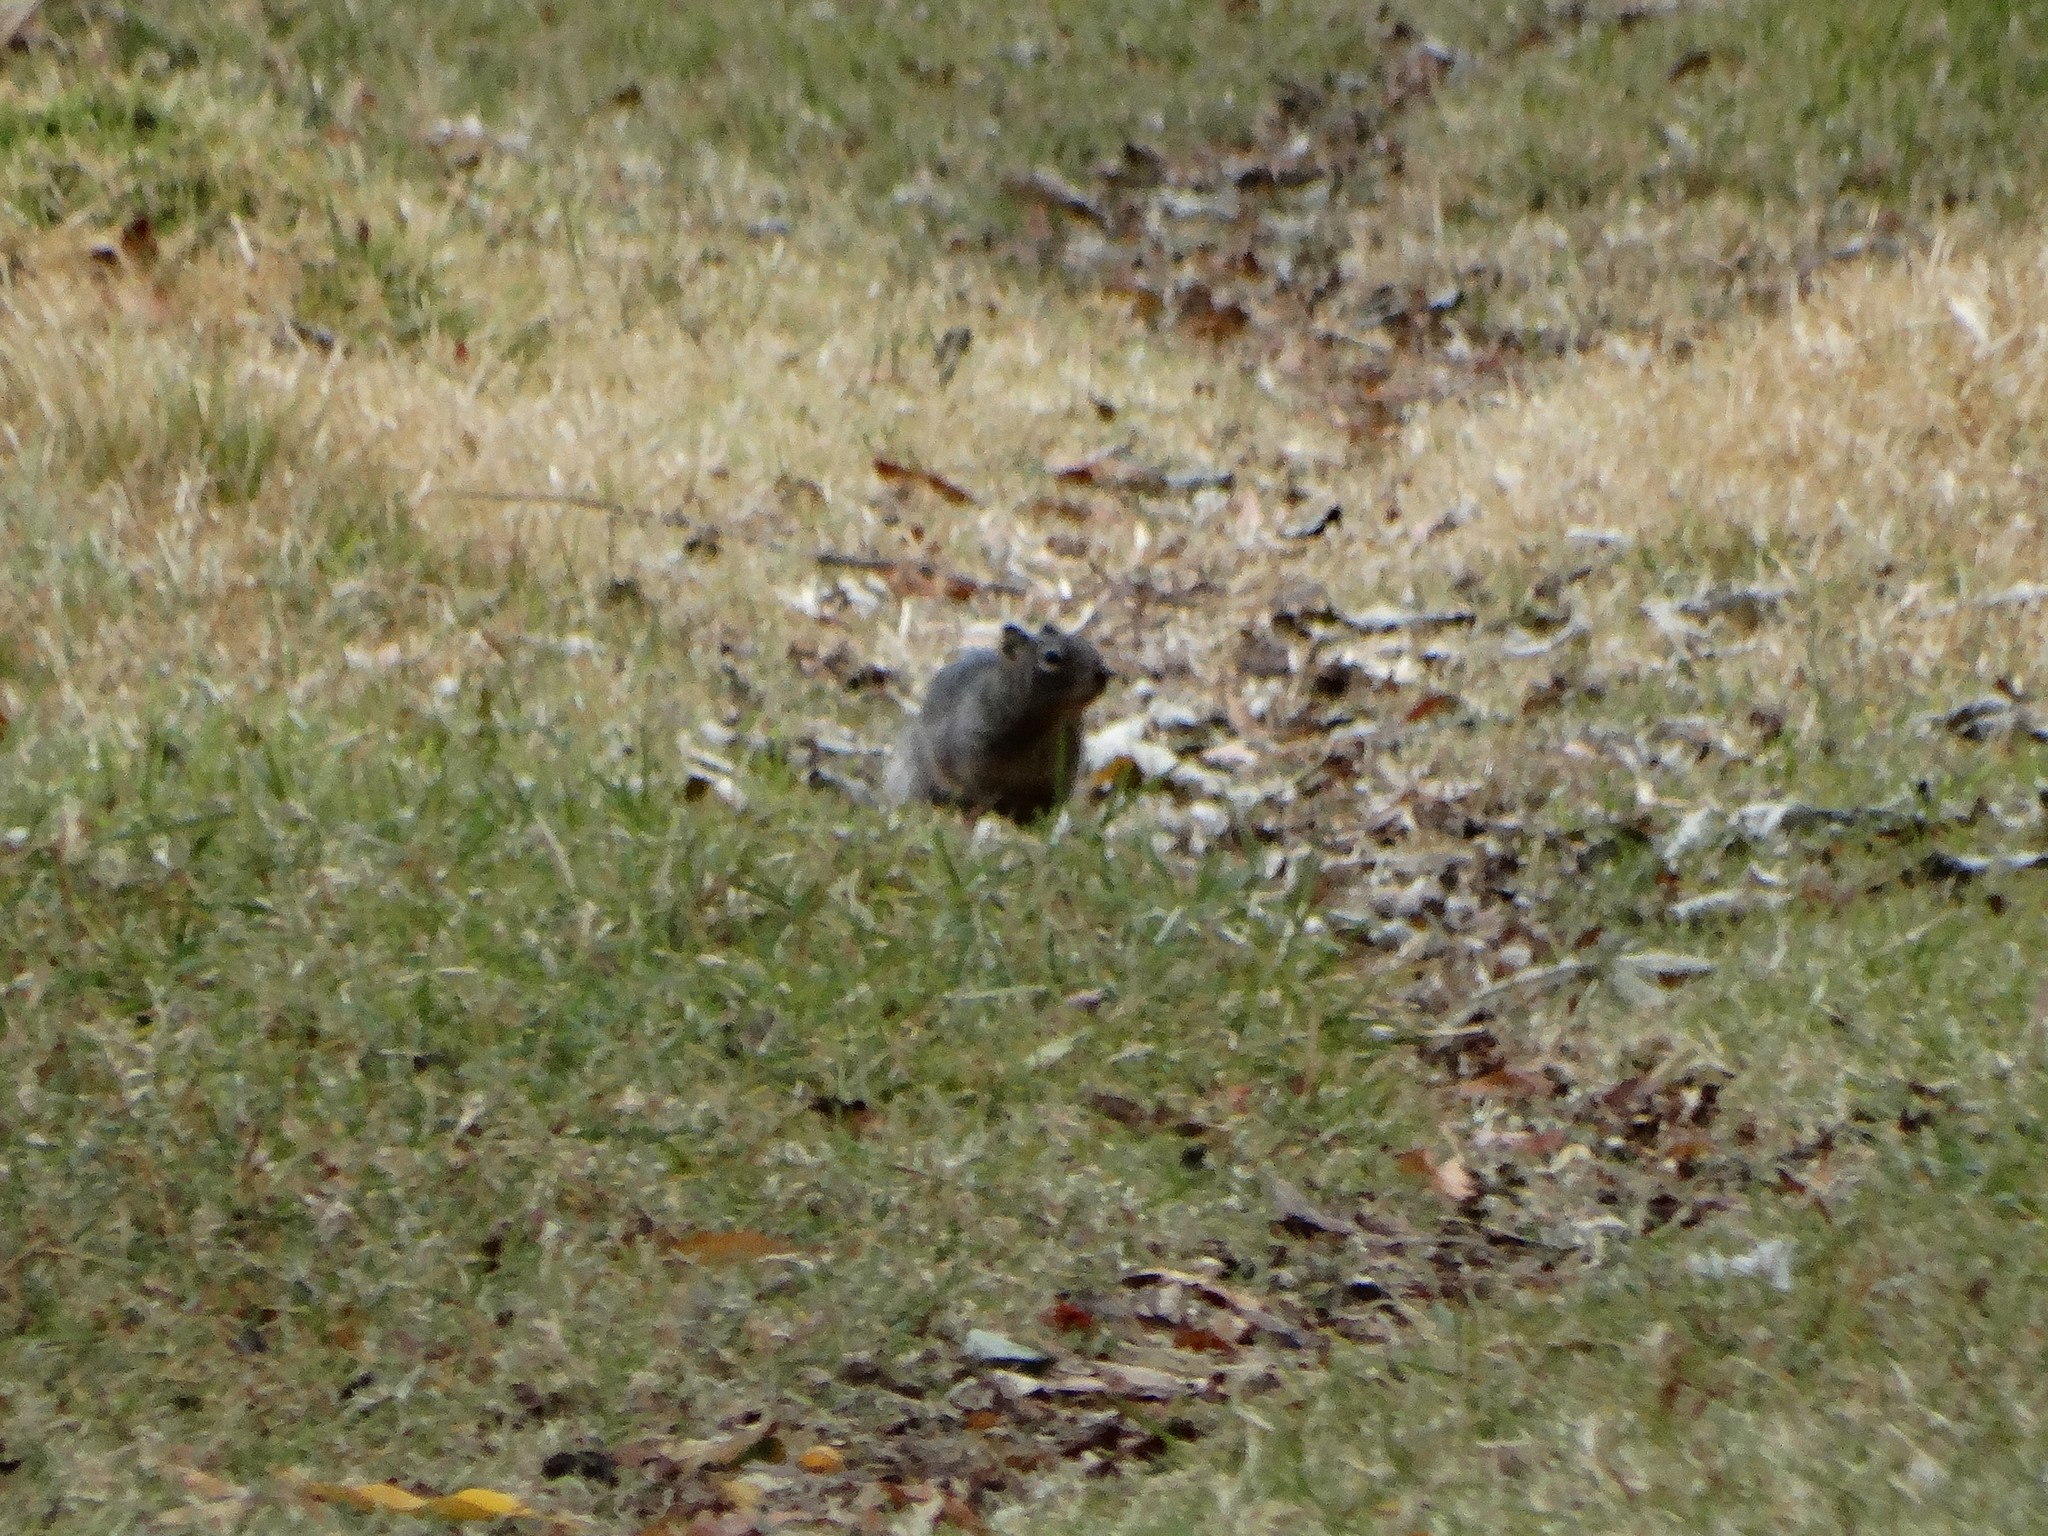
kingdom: Animalia
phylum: Chordata
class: Mammalia
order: Rodentia
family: Sciuridae
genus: Otospermophilus
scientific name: Otospermophilus variegatus
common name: Rock squirrel
